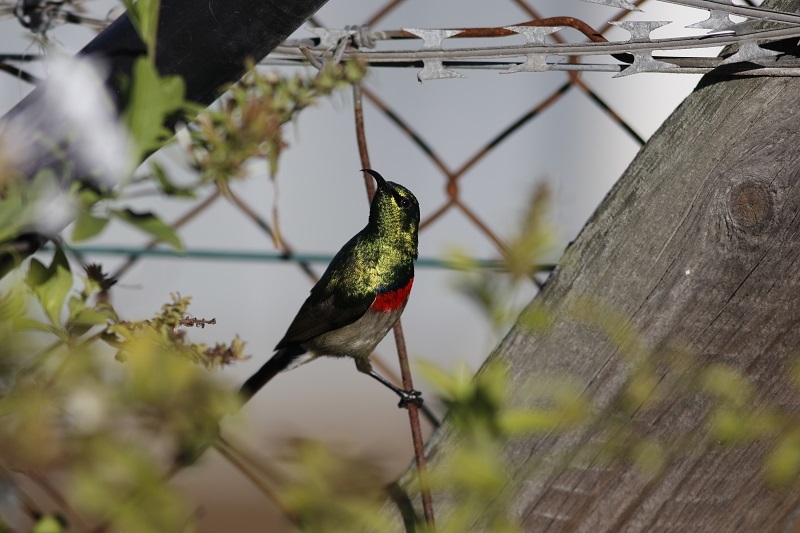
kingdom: Animalia
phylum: Chordata
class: Aves
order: Passeriformes
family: Nectariniidae
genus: Cinnyris
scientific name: Cinnyris chalybeus
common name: Southern double-collared sunbird
